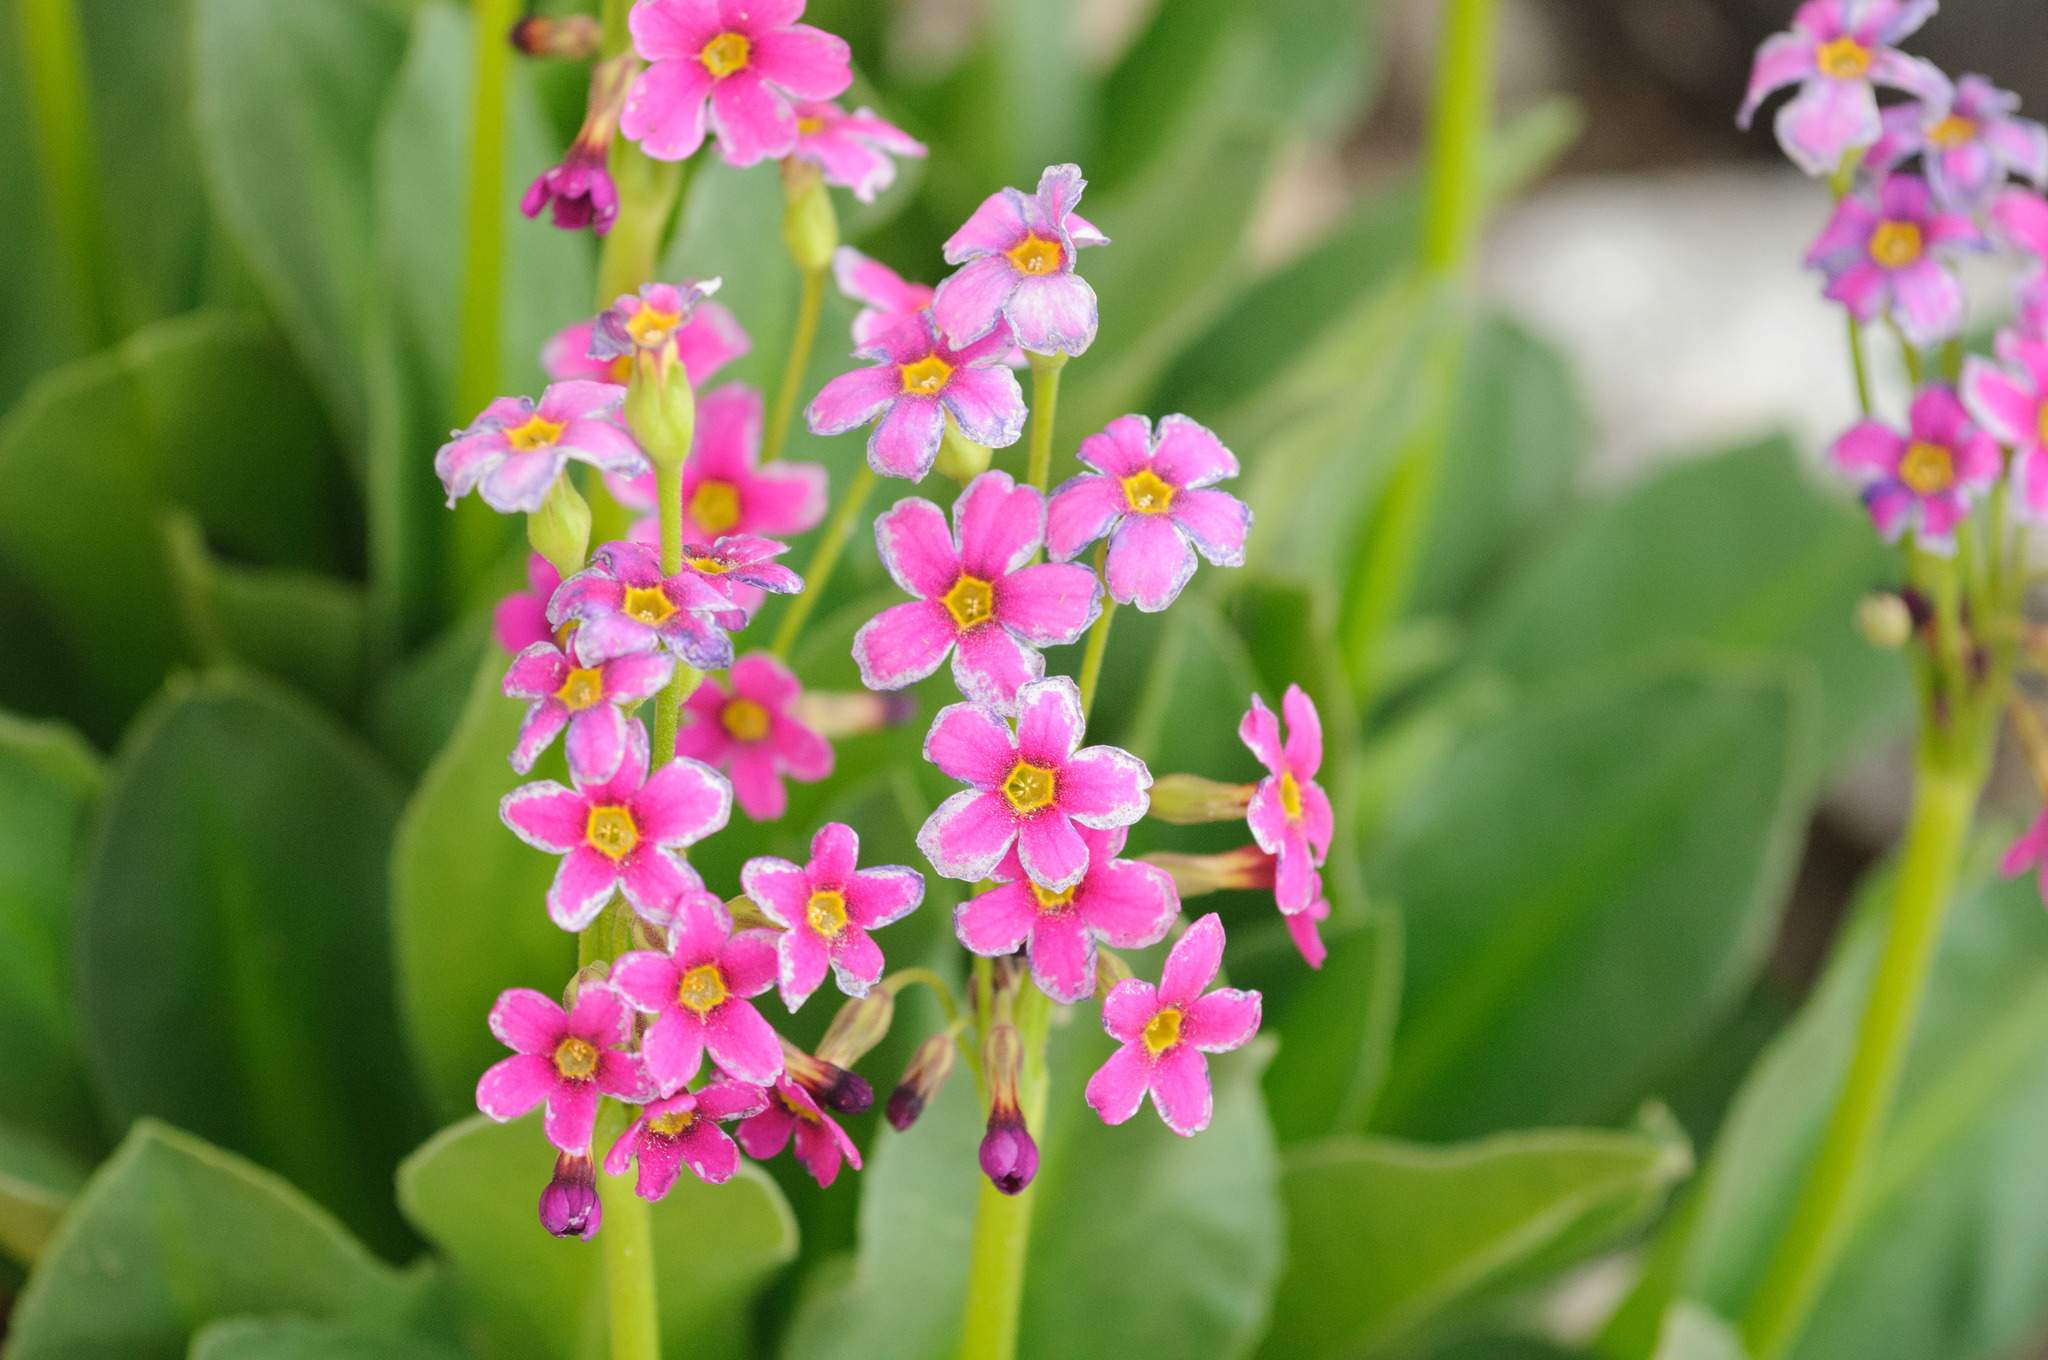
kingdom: Plantae
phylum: Tracheophyta
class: Magnoliopsida
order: Ericales
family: Primulaceae
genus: Primula
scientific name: Primula parryi
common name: Parry's primrose
